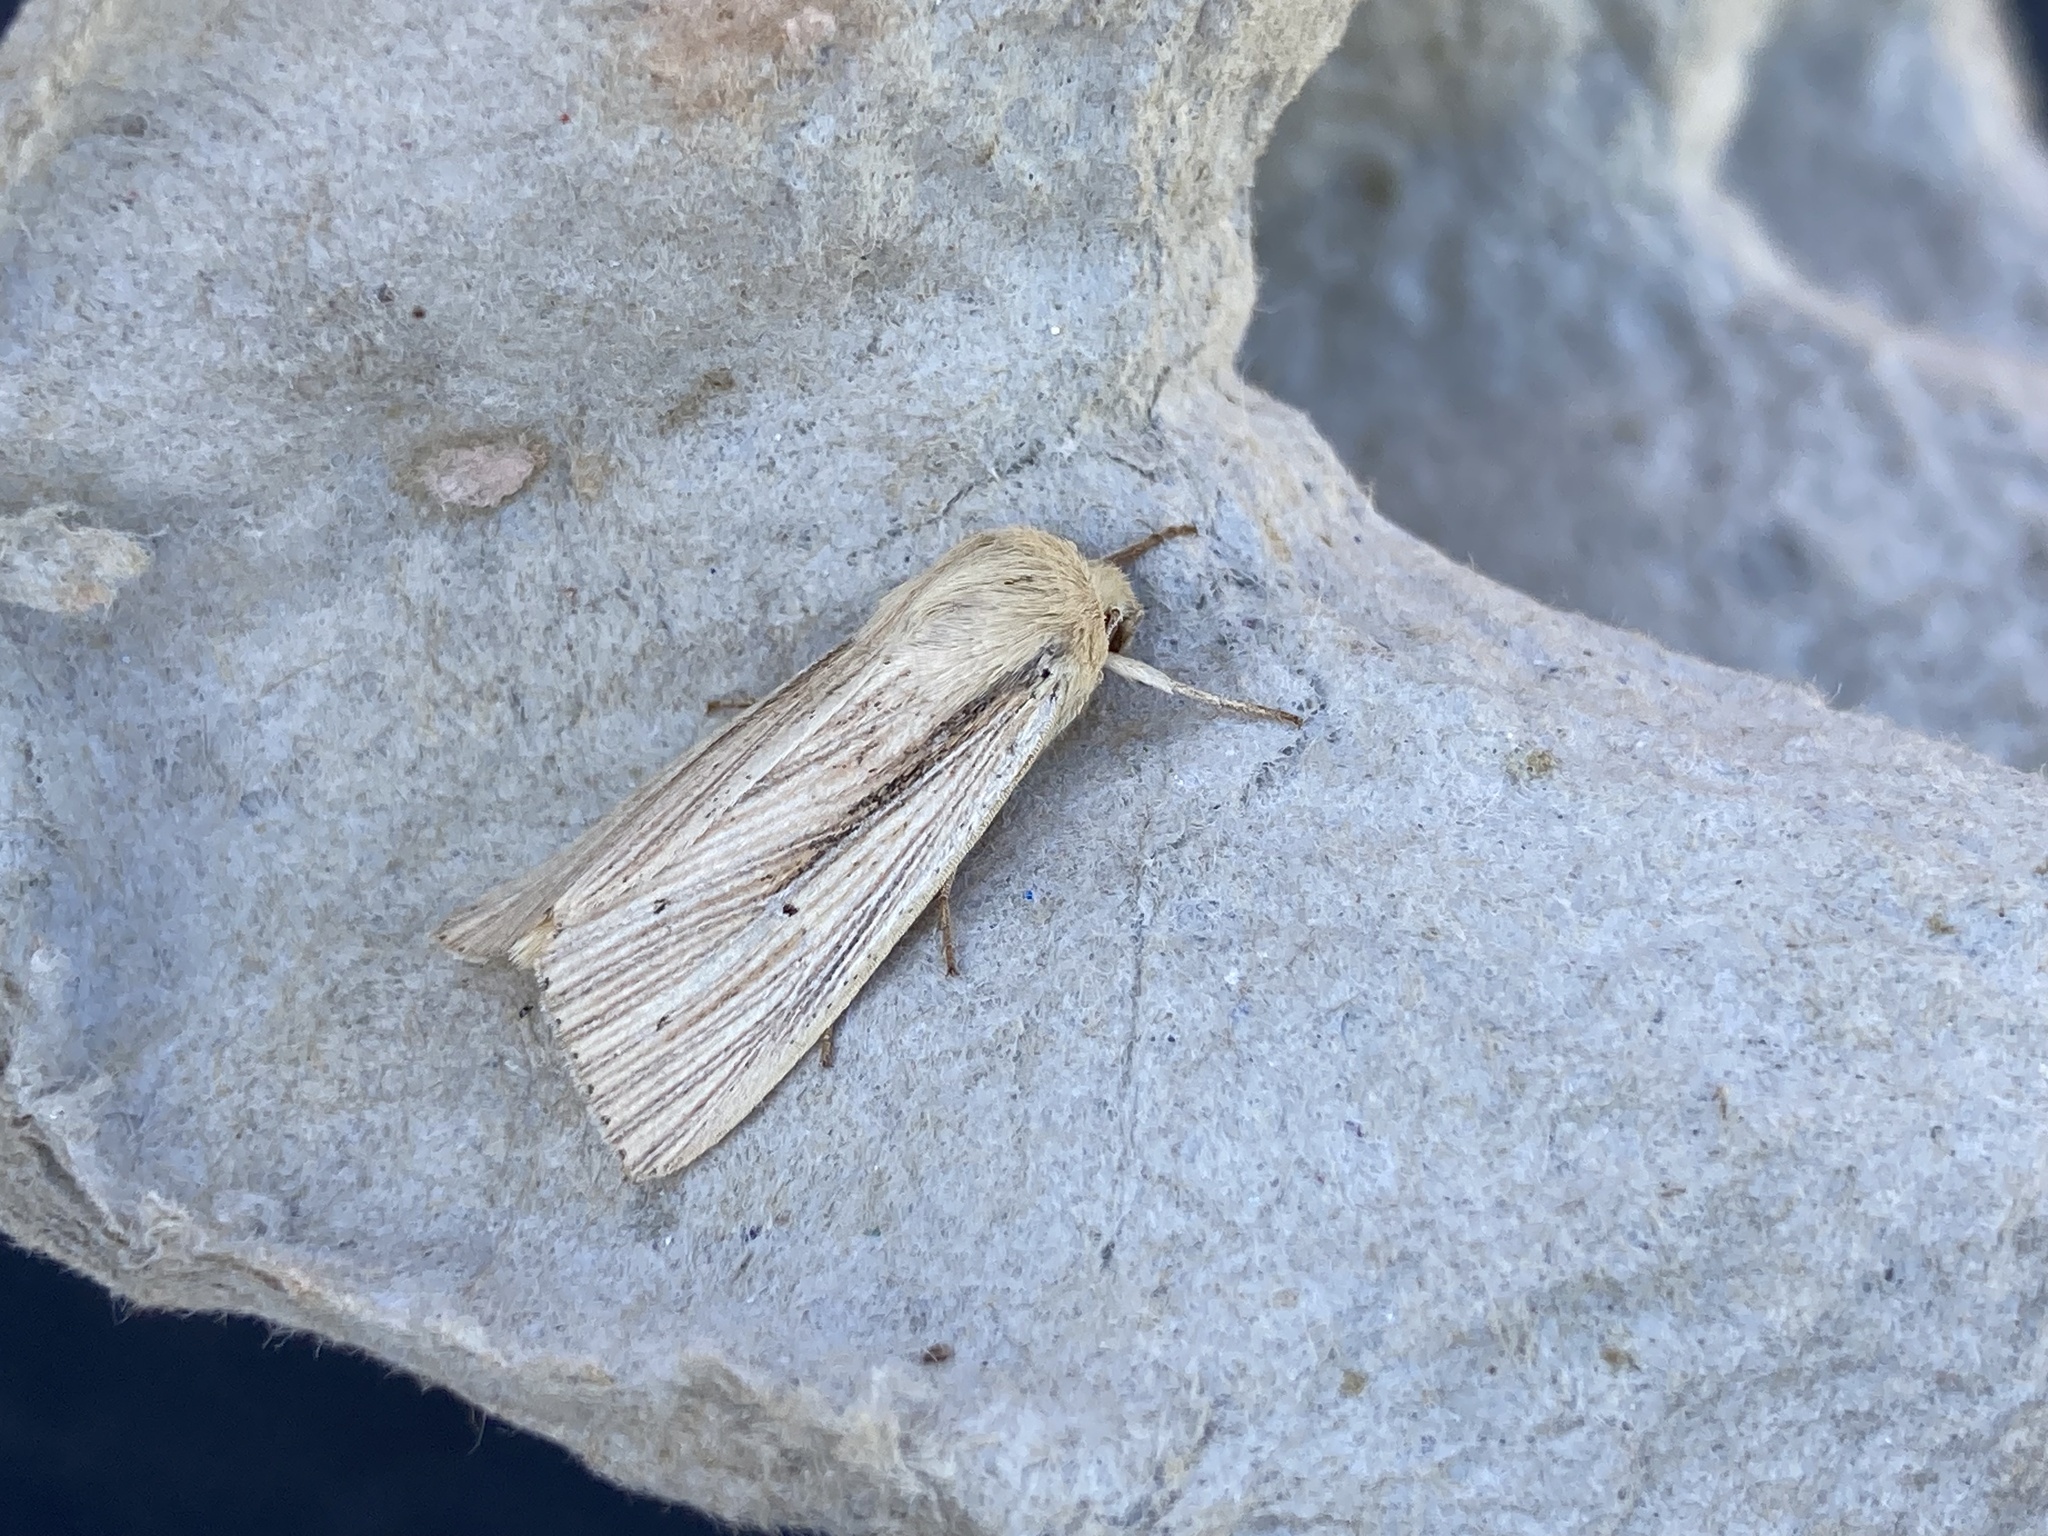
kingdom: Animalia
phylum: Arthropoda
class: Insecta
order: Lepidoptera
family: Noctuidae
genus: Mythimna
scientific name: Mythimna straminea
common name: Southern wainscot
